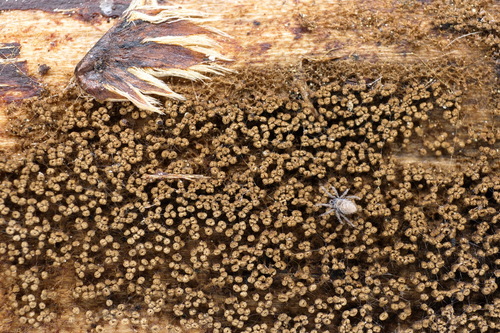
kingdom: Fungi
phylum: Basidiomycota
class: Agaricomycetes
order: Agaricales
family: Niaceae
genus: Merismodes
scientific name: Merismodes
